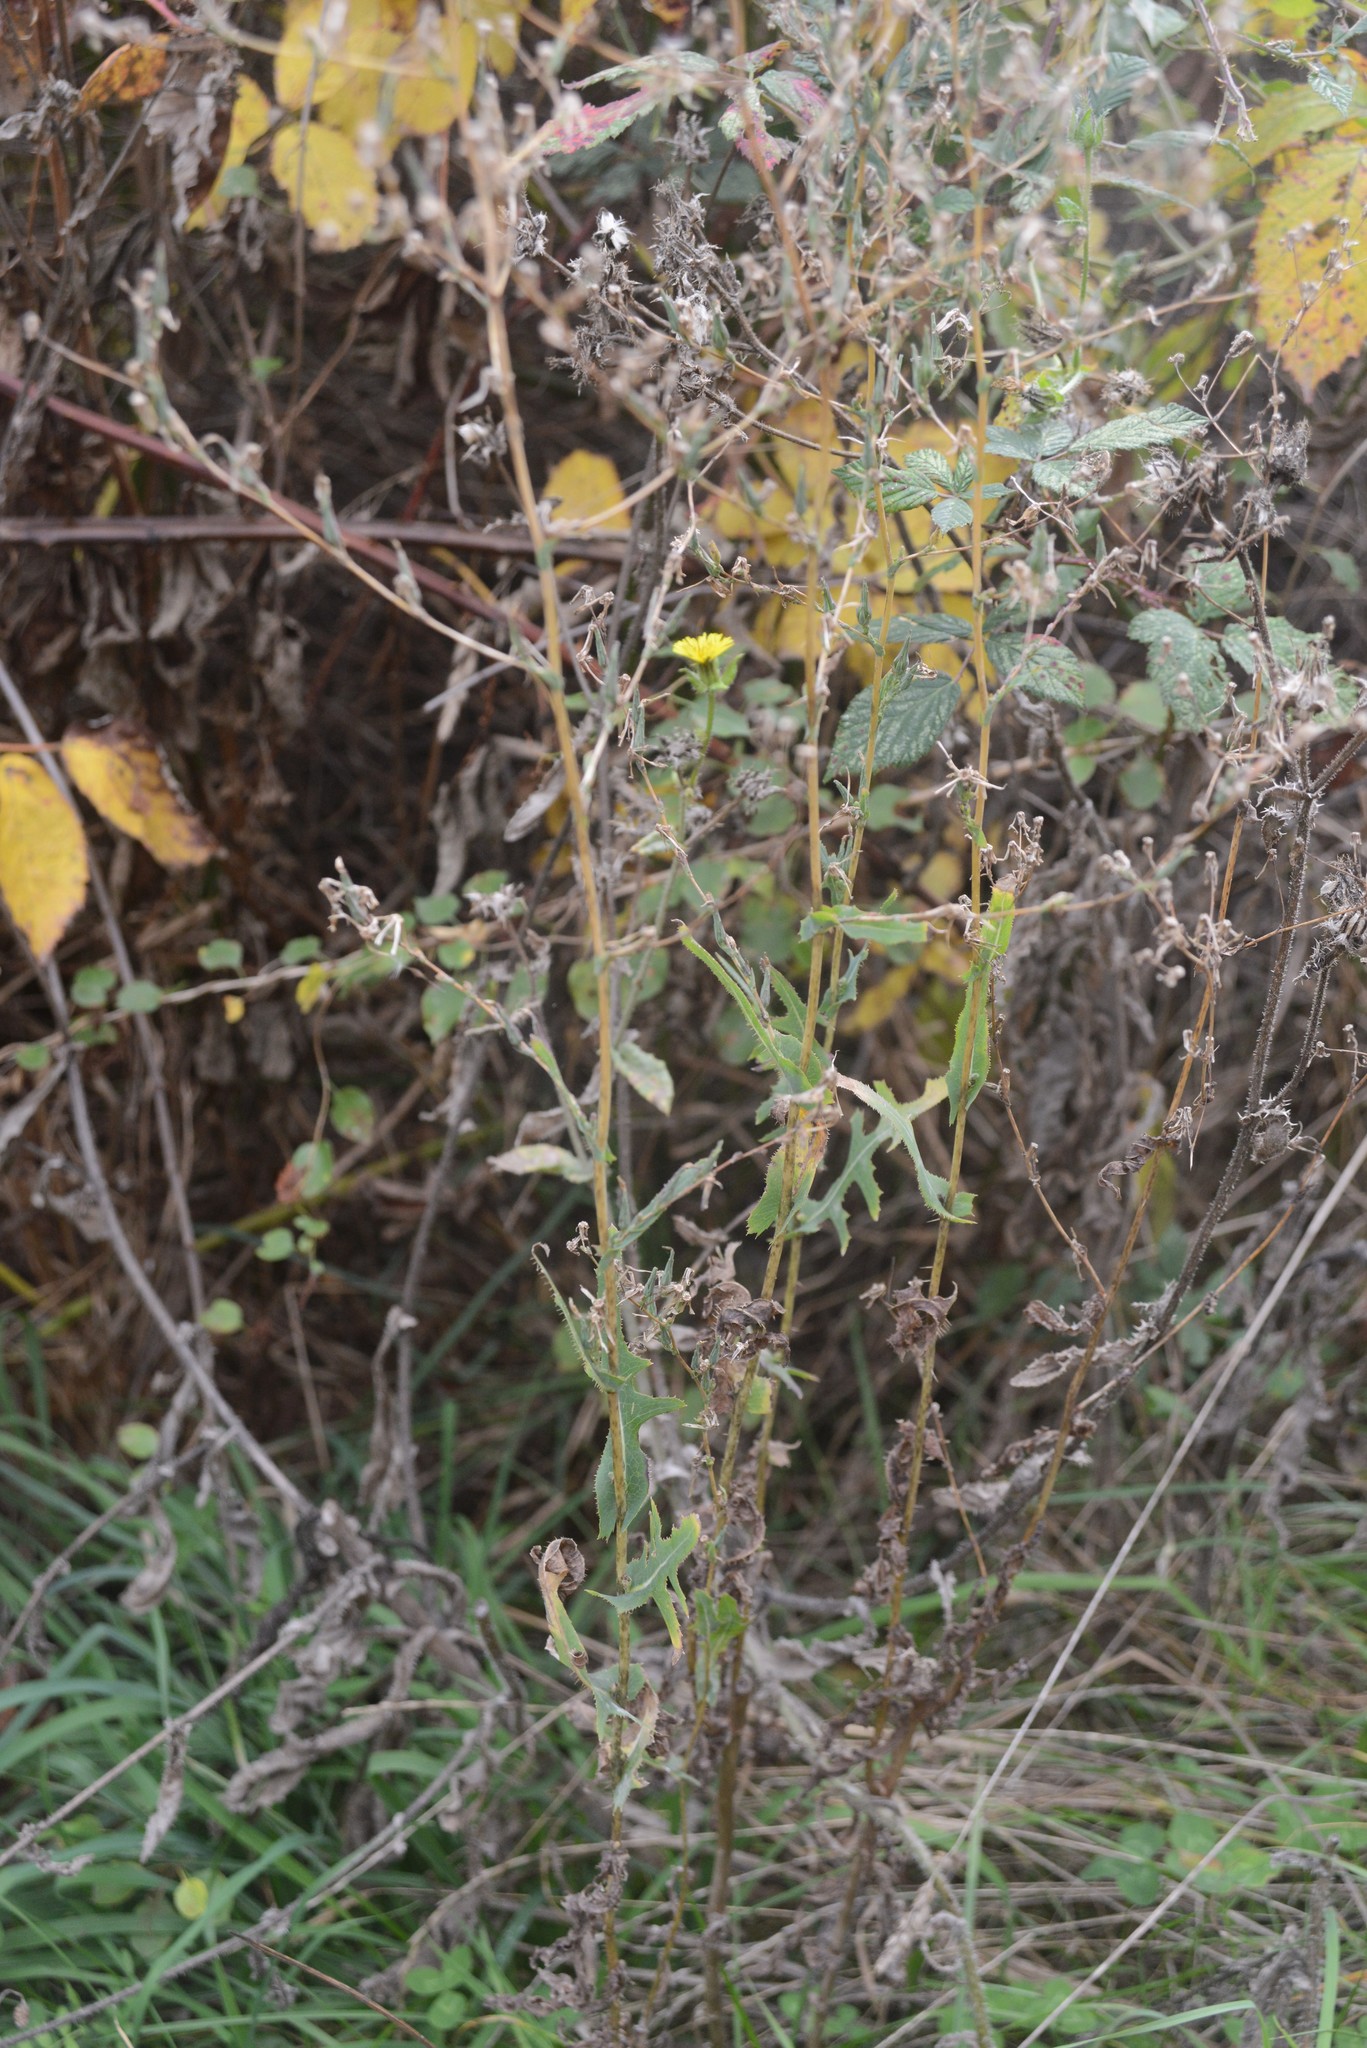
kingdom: Plantae
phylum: Tracheophyta
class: Magnoliopsida
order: Asterales
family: Asteraceae
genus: Lactuca
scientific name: Lactuca serriola
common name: Prickly lettuce
